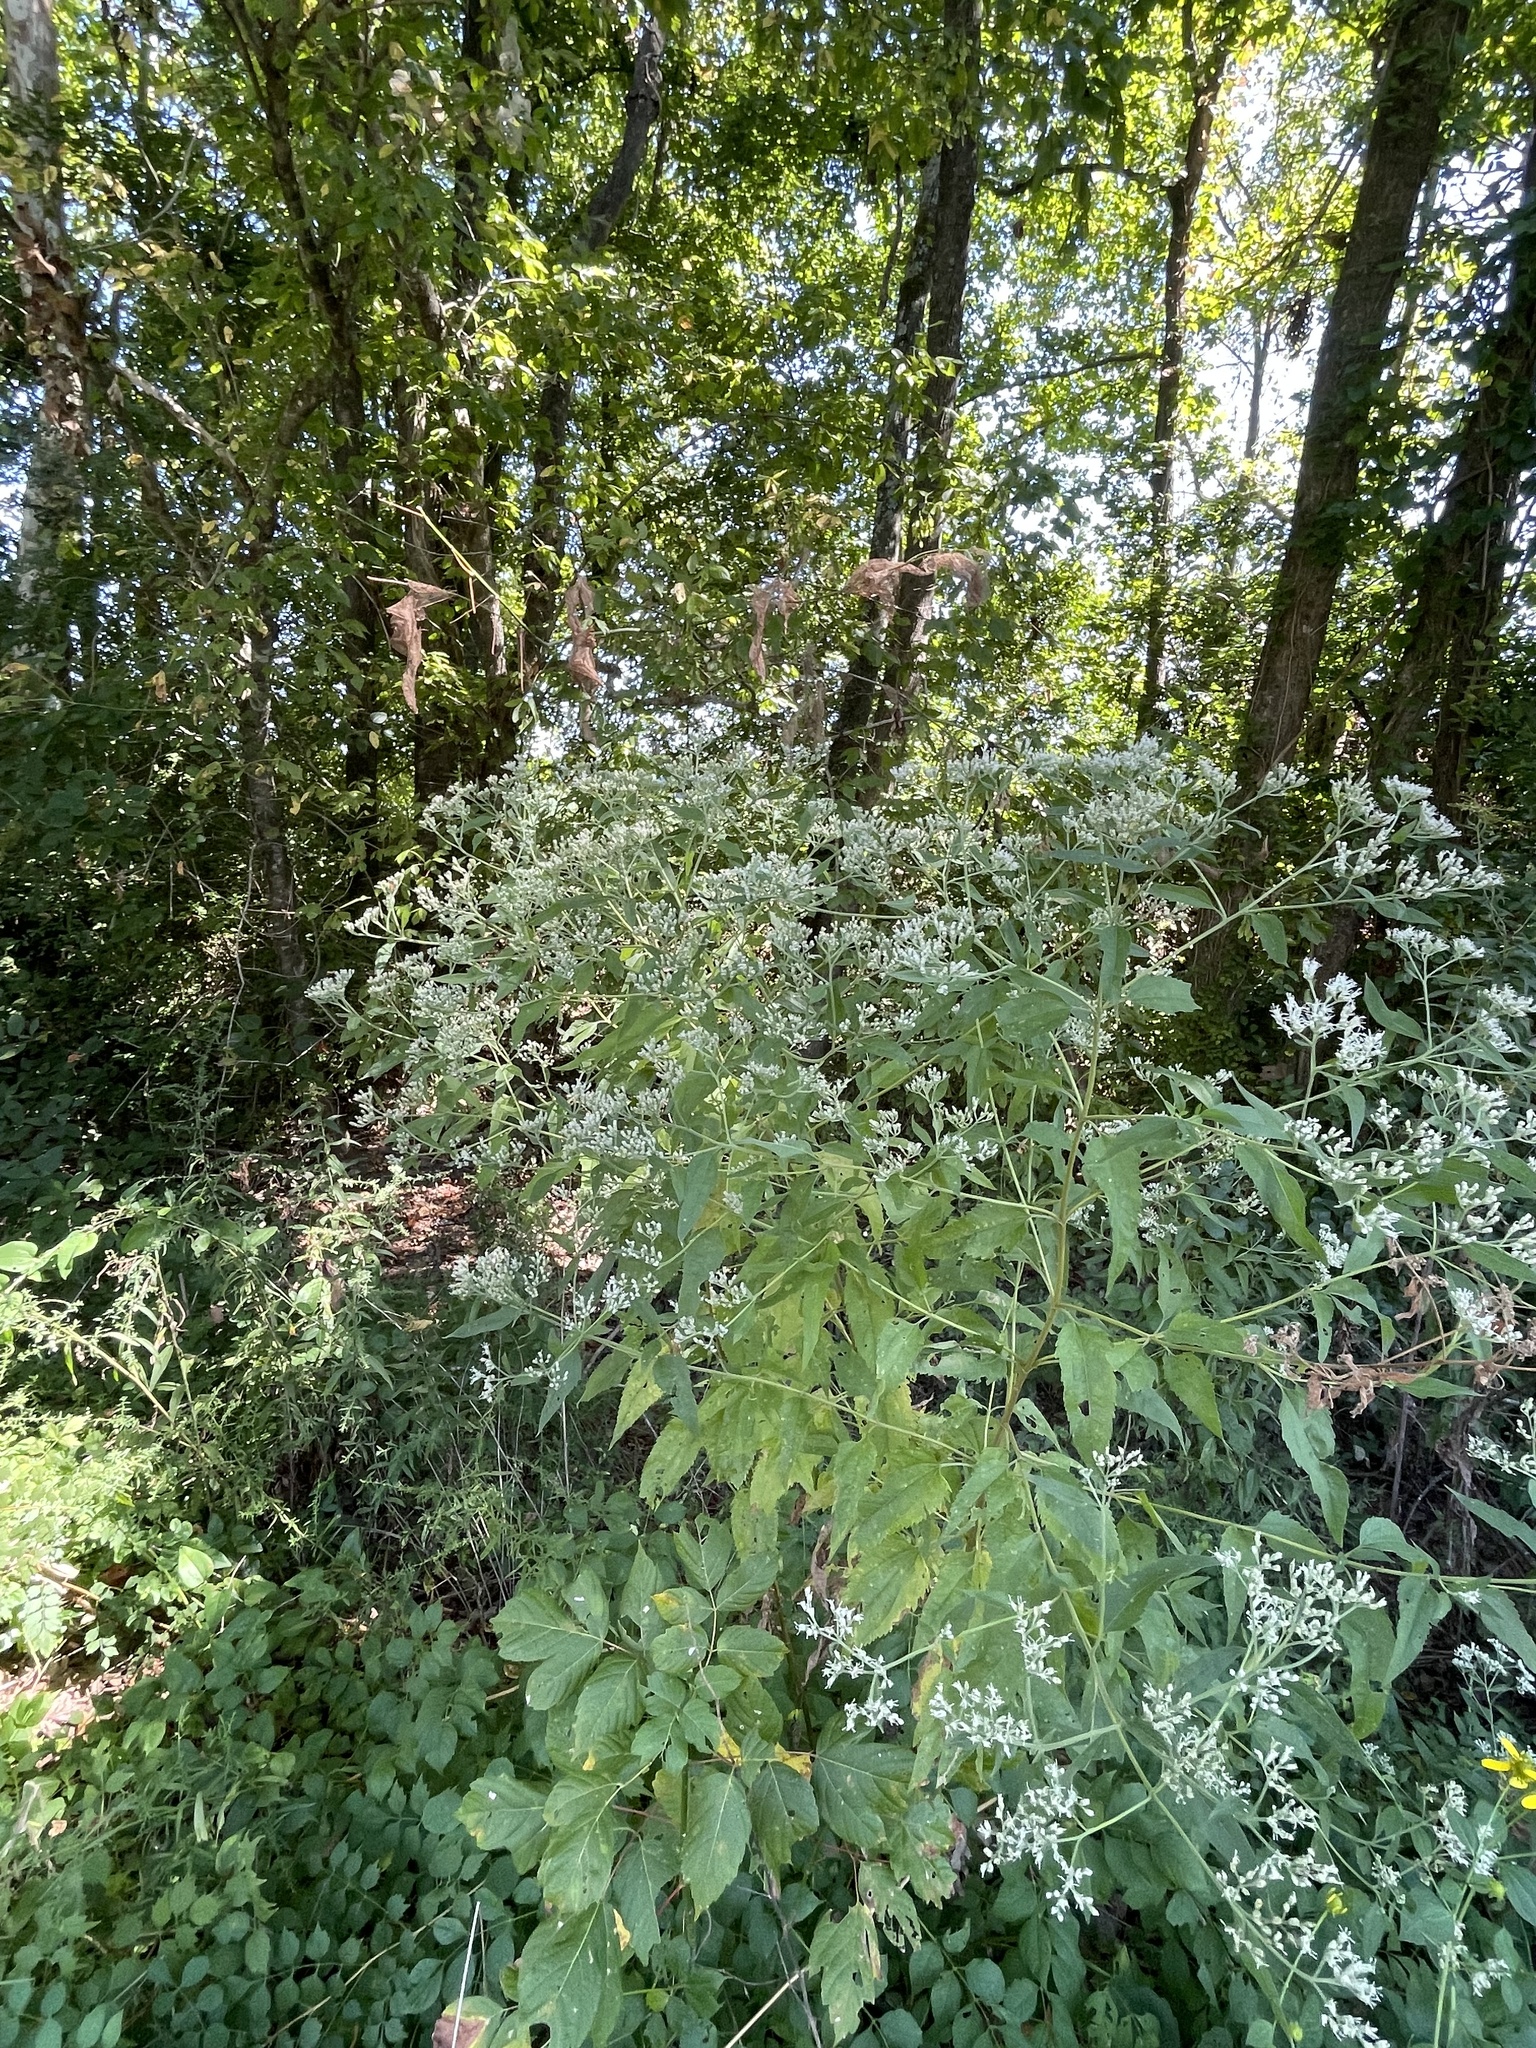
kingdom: Plantae
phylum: Tracheophyta
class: Magnoliopsida
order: Asterales
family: Asteraceae
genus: Eupatorium
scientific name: Eupatorium serotinum
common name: Late boneset
